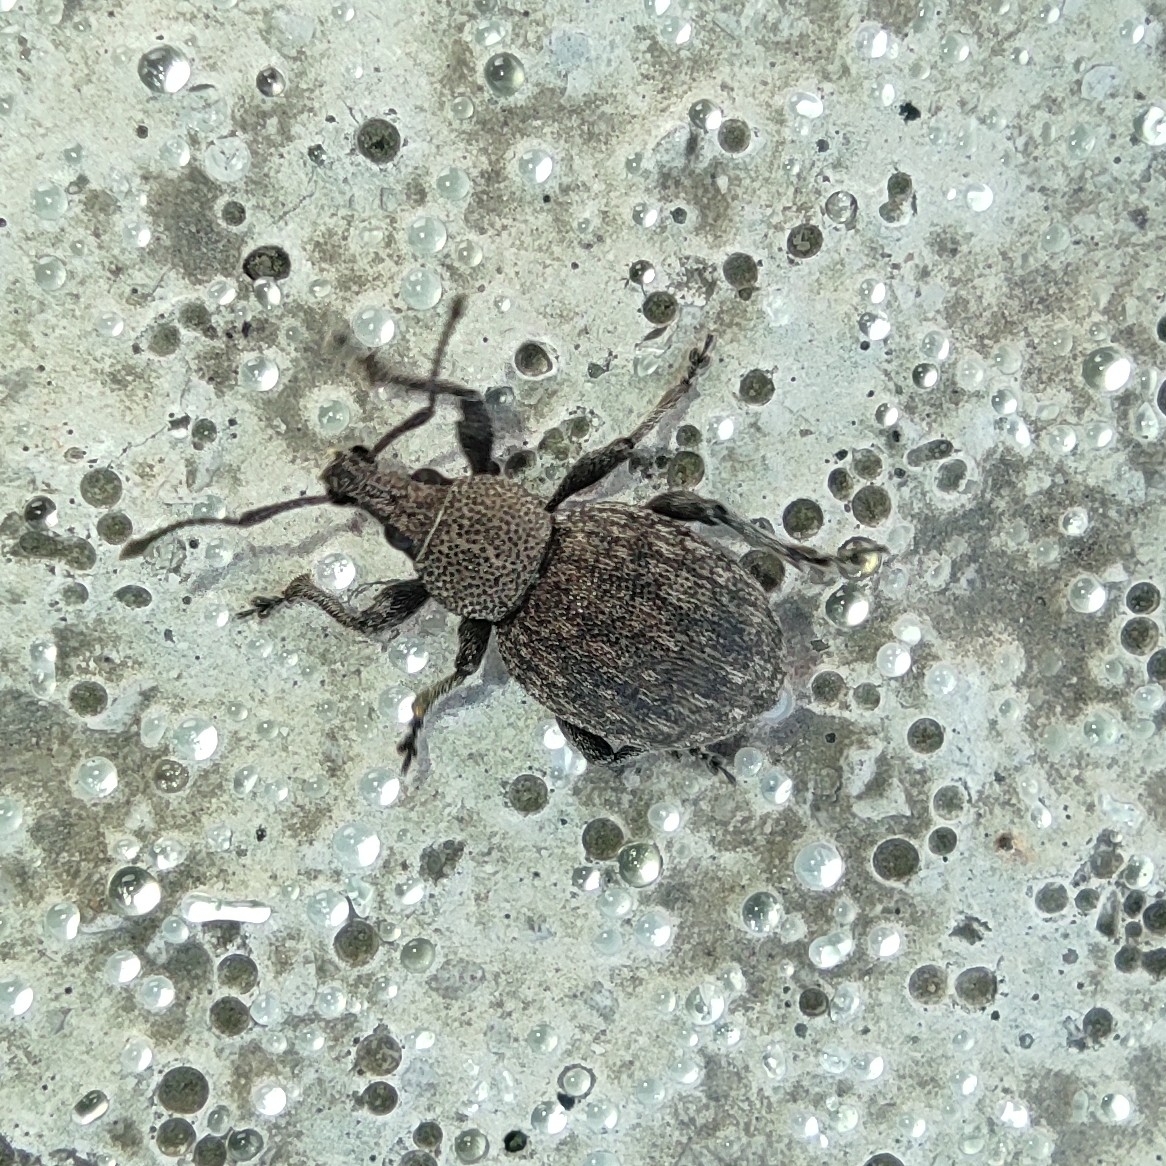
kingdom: Animalia
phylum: Arthropoda
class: Insecta
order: Coleoptera
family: Curculionidae
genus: Otiorhynchus
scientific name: Otiorhynchus ligustici
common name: Weevil
